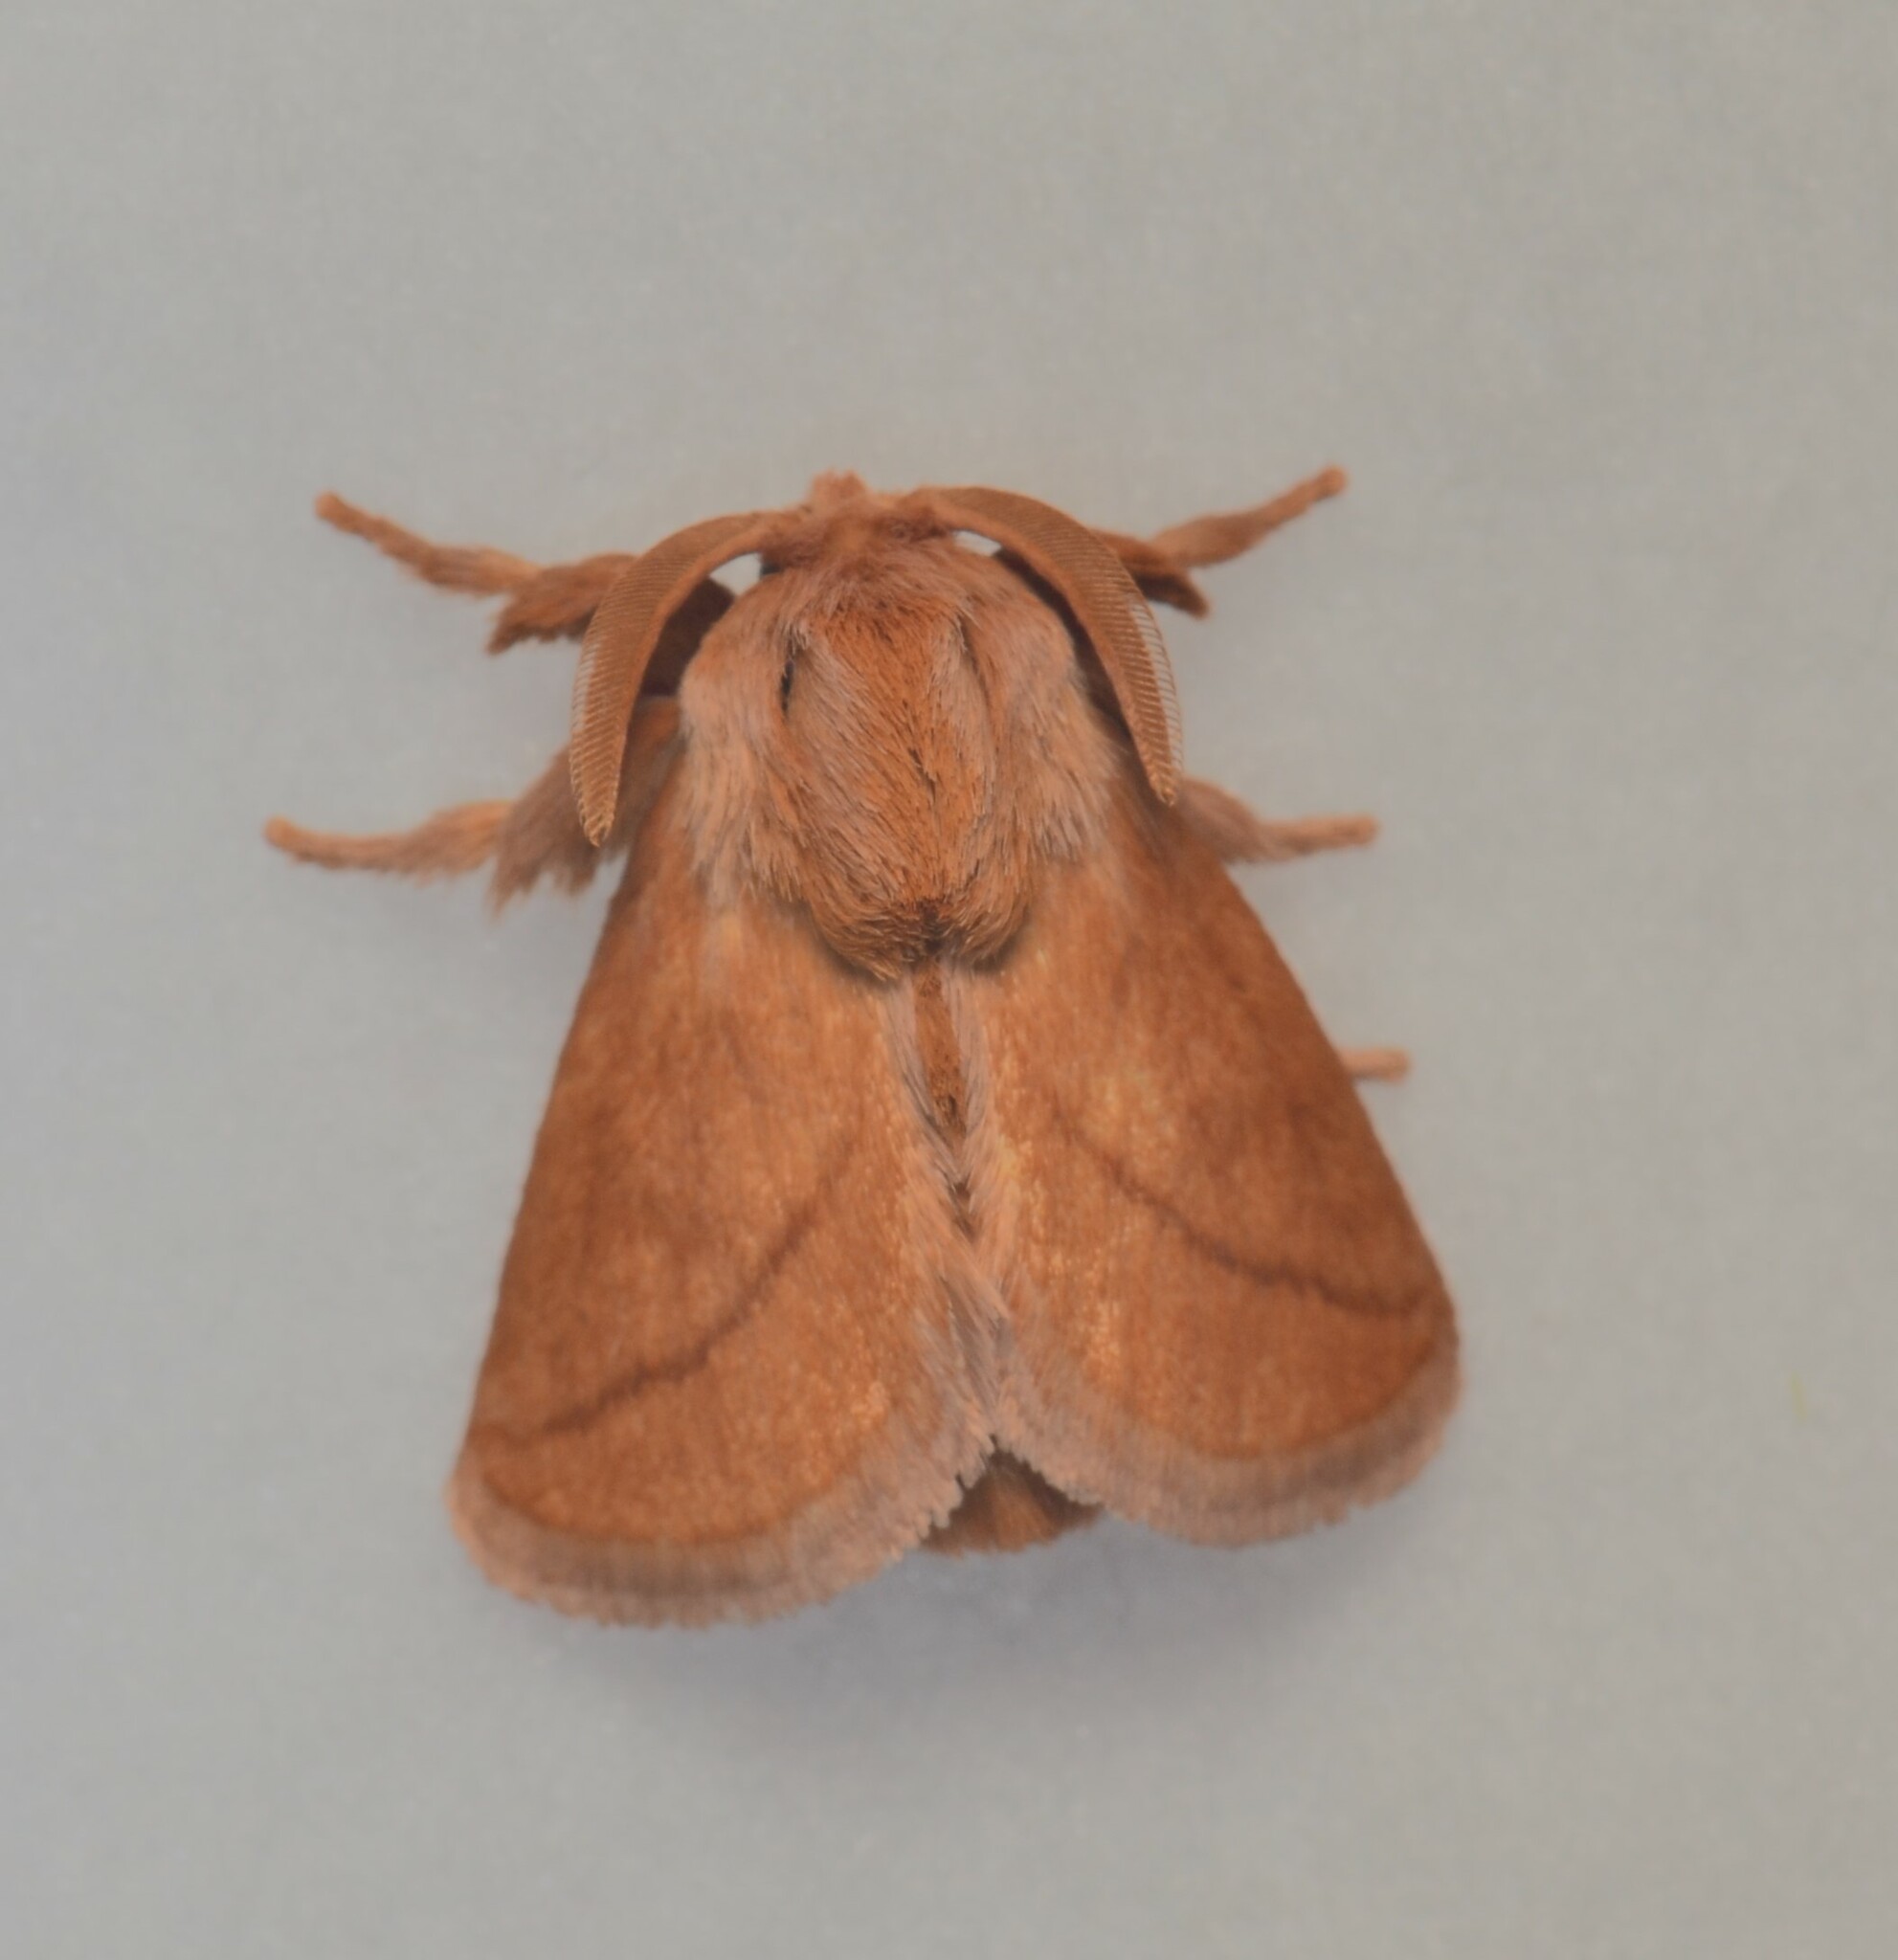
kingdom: Animalia
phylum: Arthropoda
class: Insecta
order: Lepidoptera
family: Limacodidae
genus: Perola
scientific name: Perola clara
